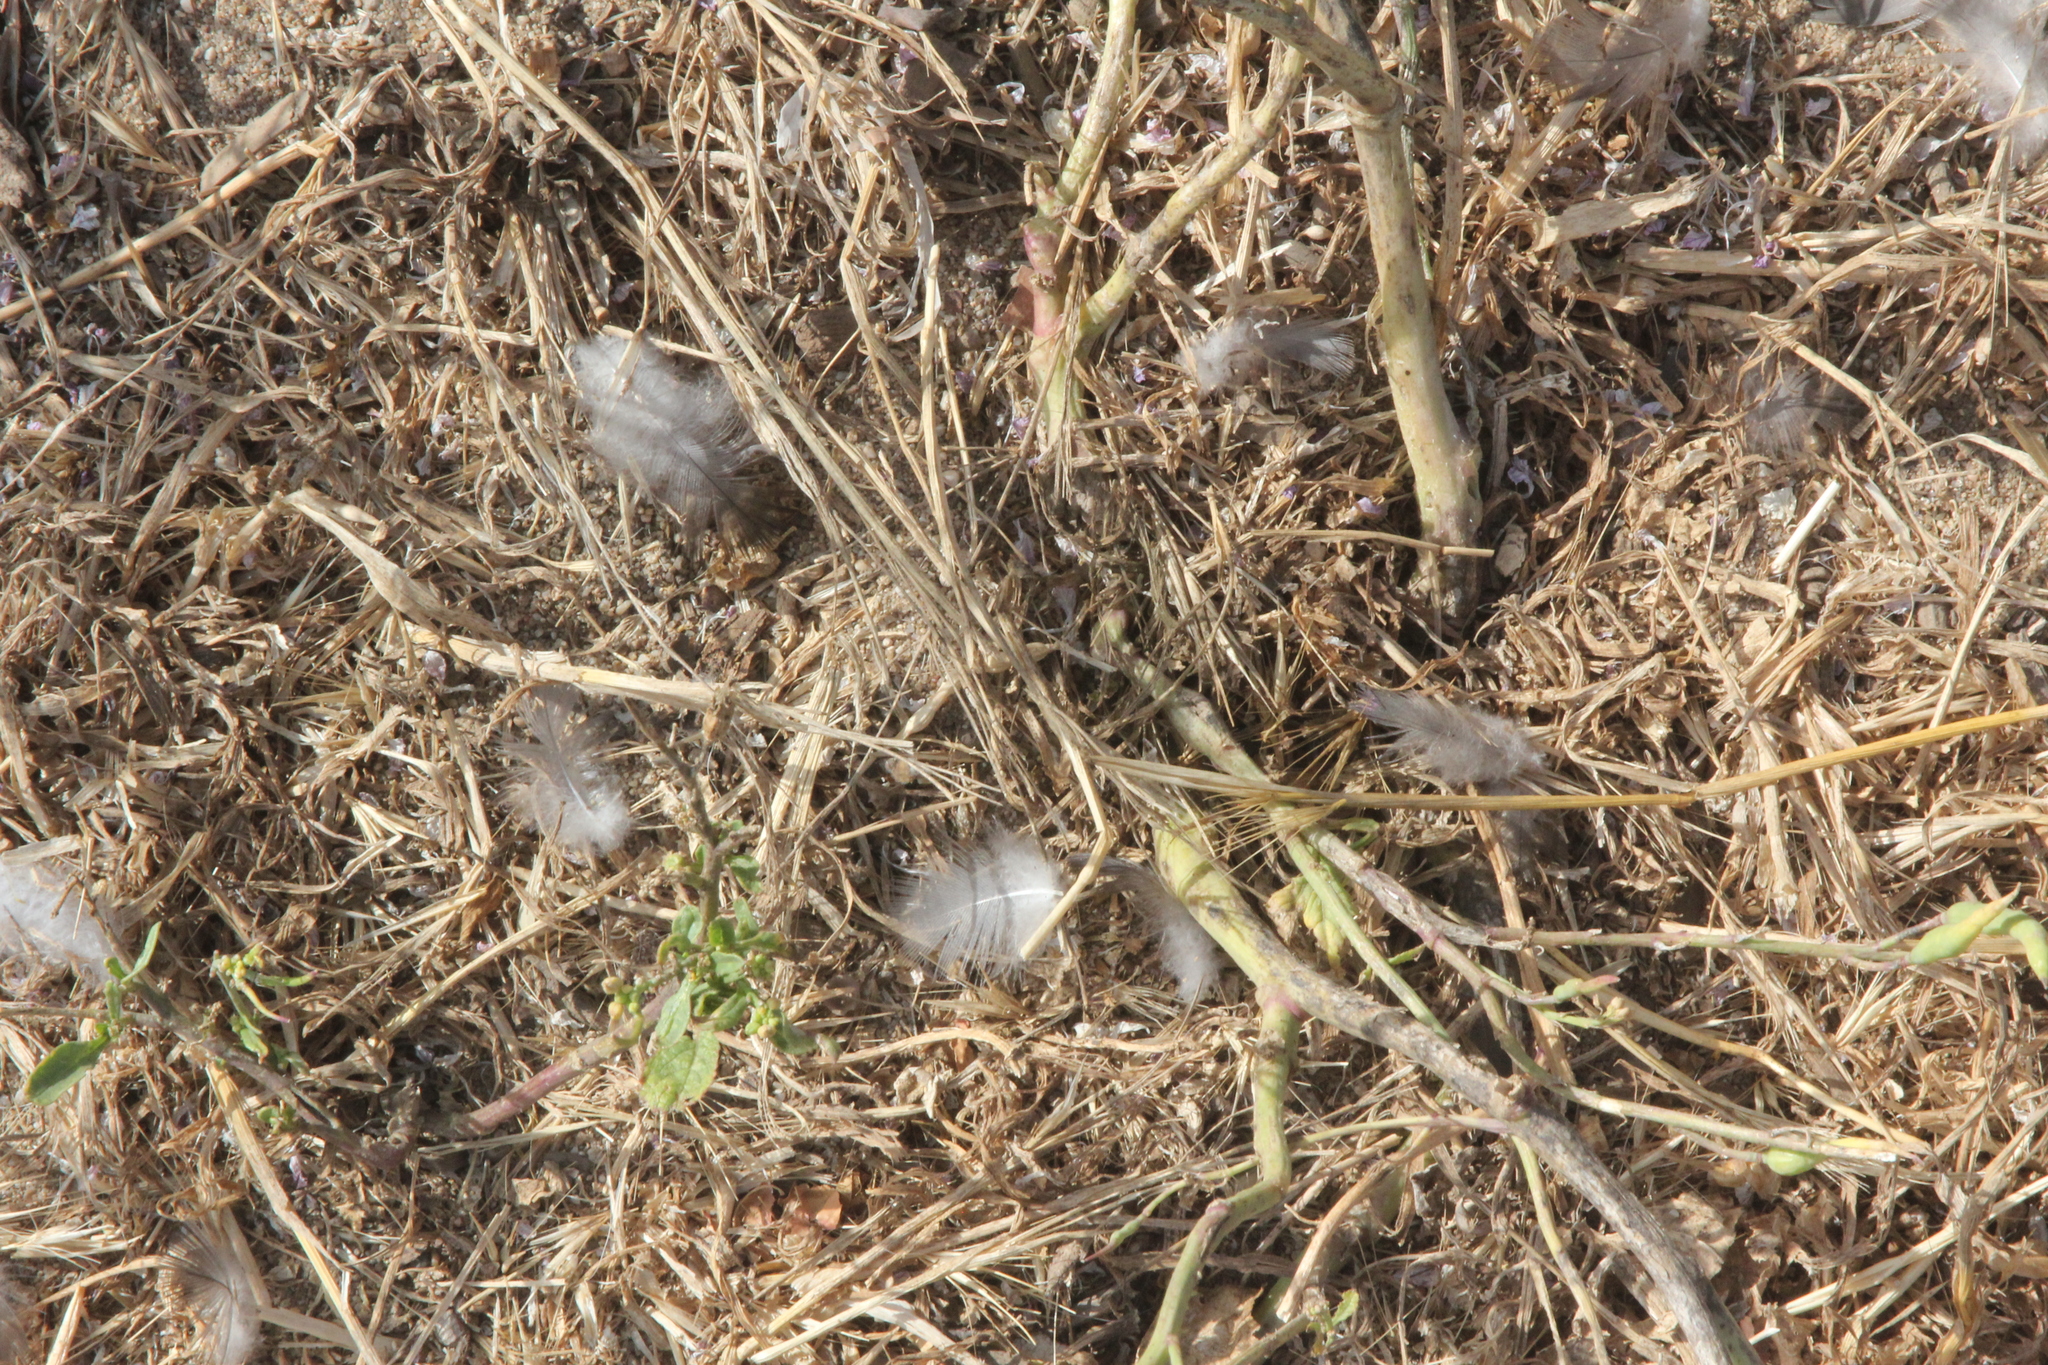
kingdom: Animalia
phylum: Chordata
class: Aves
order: Columbiformes
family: Columbidae
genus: Columba
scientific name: Columba livia
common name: Rock pigeon
